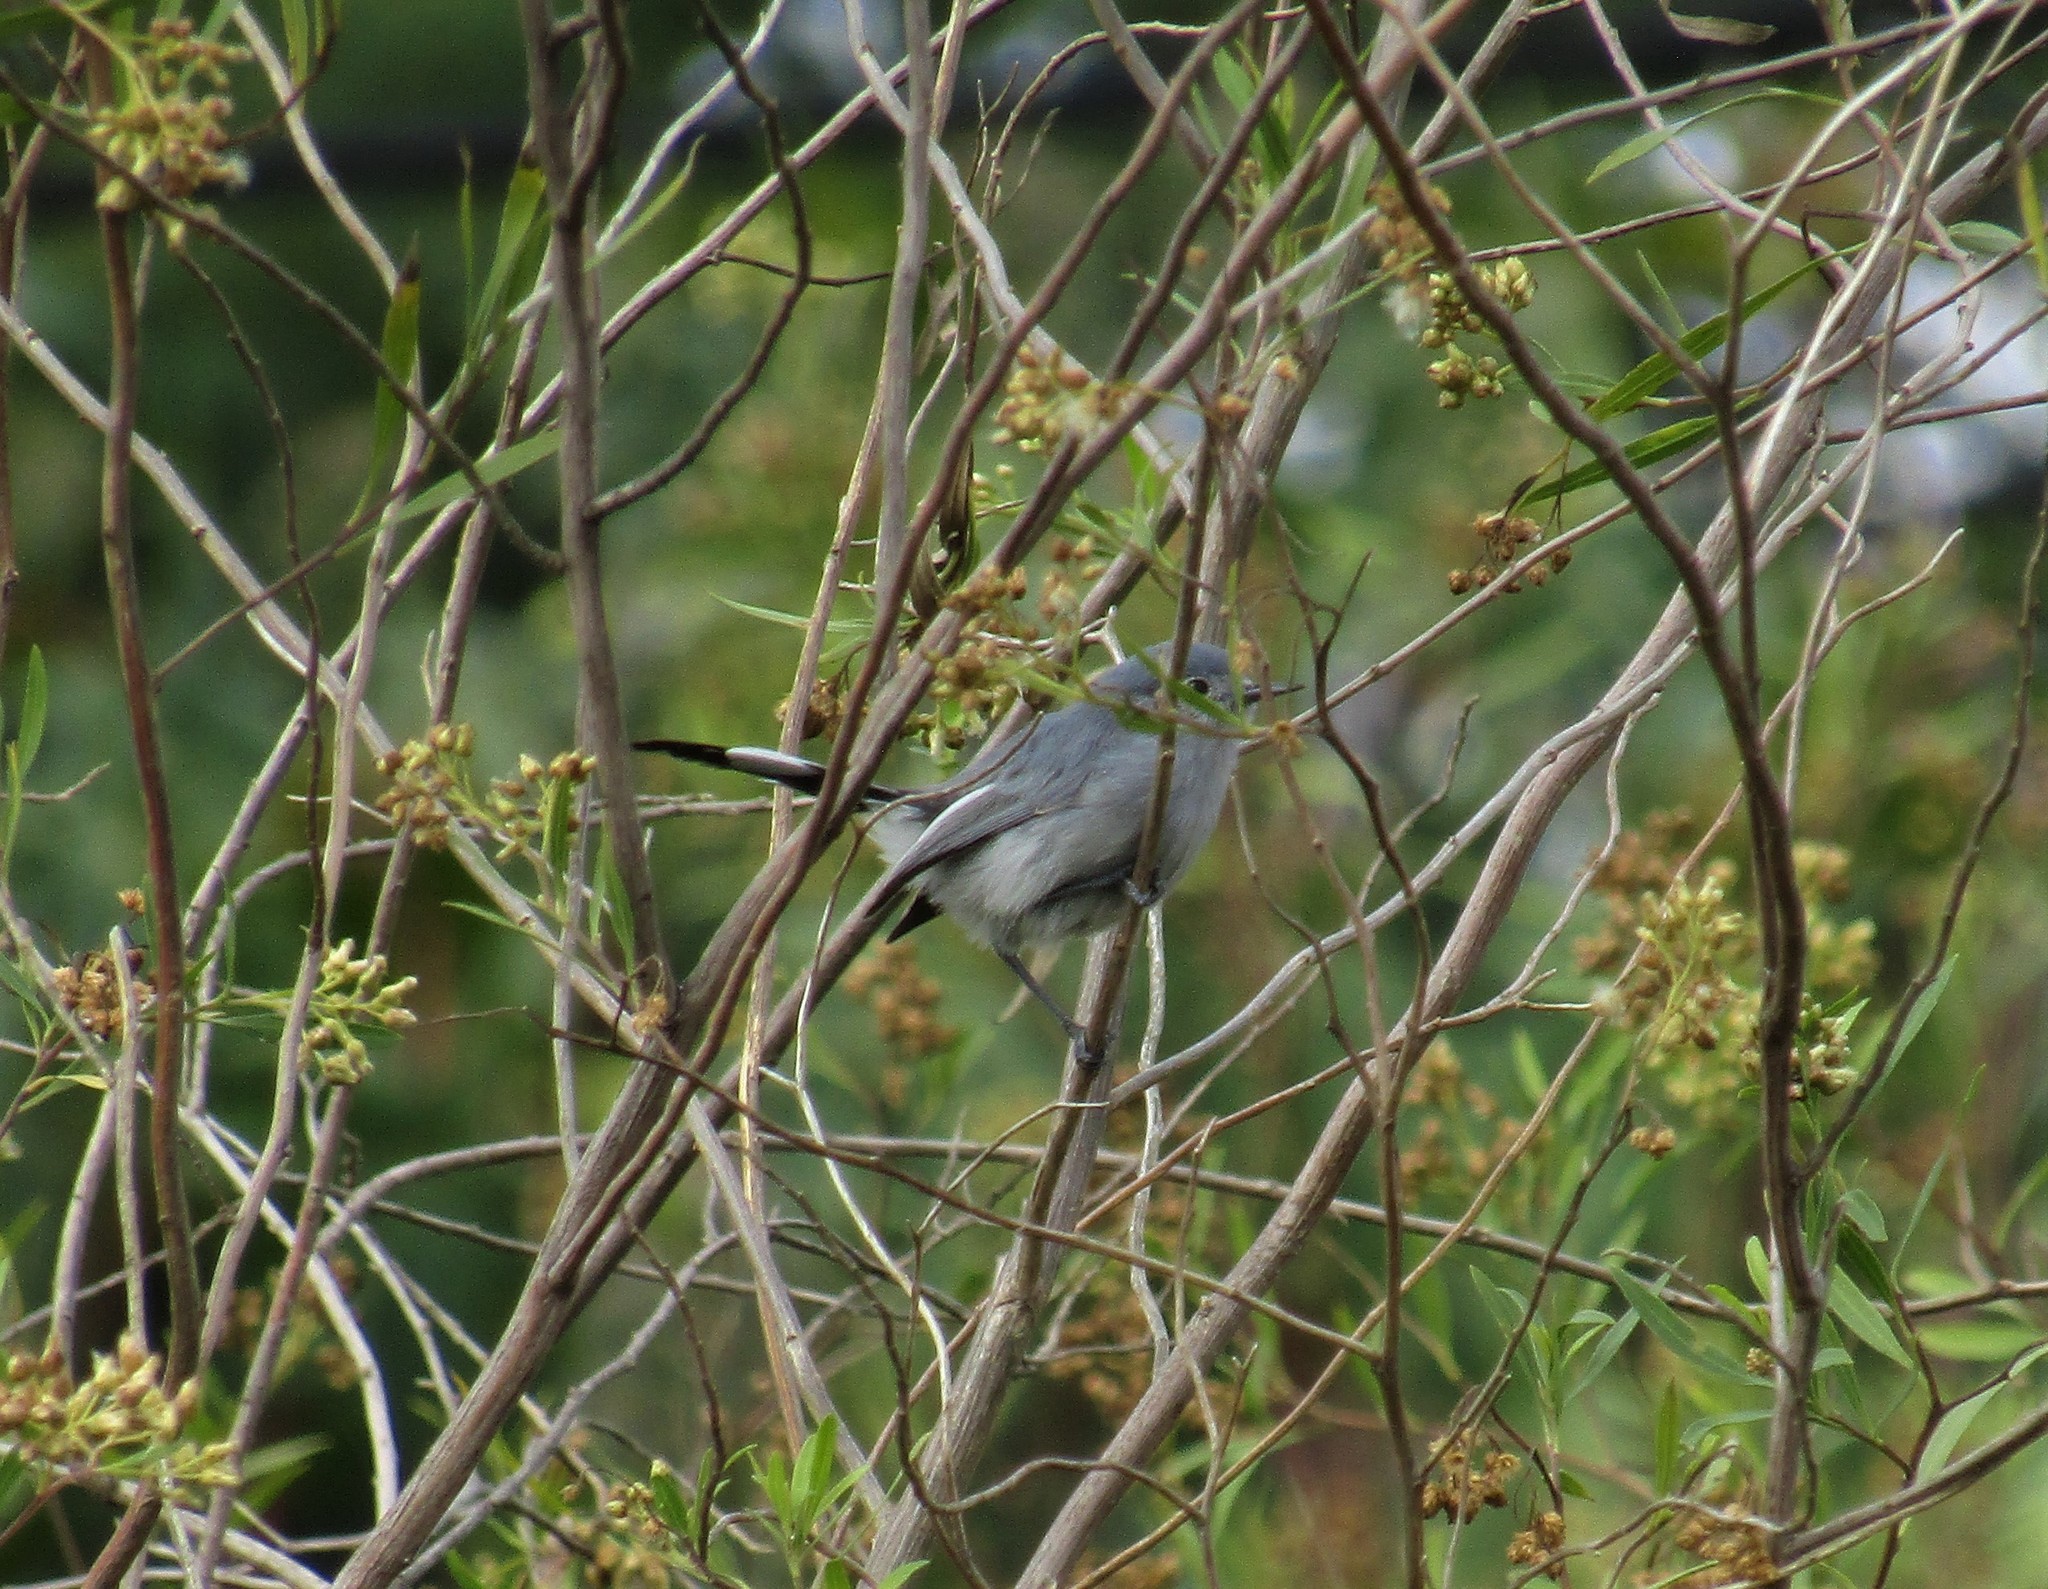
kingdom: Animalia
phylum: Chordata
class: Aves
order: Passeriformes
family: Polioptilidae
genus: Polioptila
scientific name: Polioptila dumicola
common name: Masked gnatcatcher
